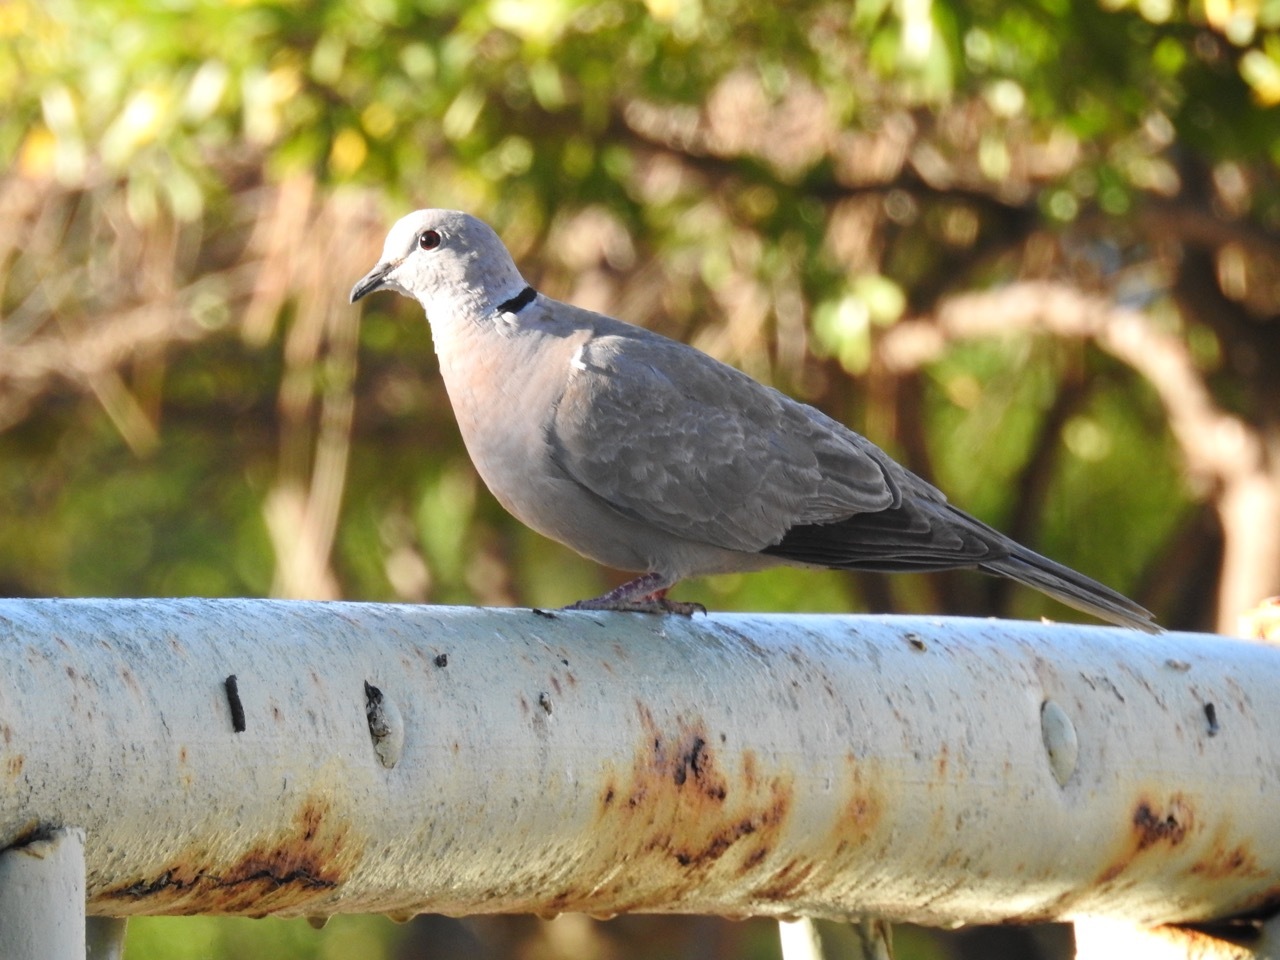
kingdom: Animalia
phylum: Chordata
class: Aves
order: Columbiformes
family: Columbidae
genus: Streptopelia
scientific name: Streptopelia decaocto
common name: Eurasian collared dove
